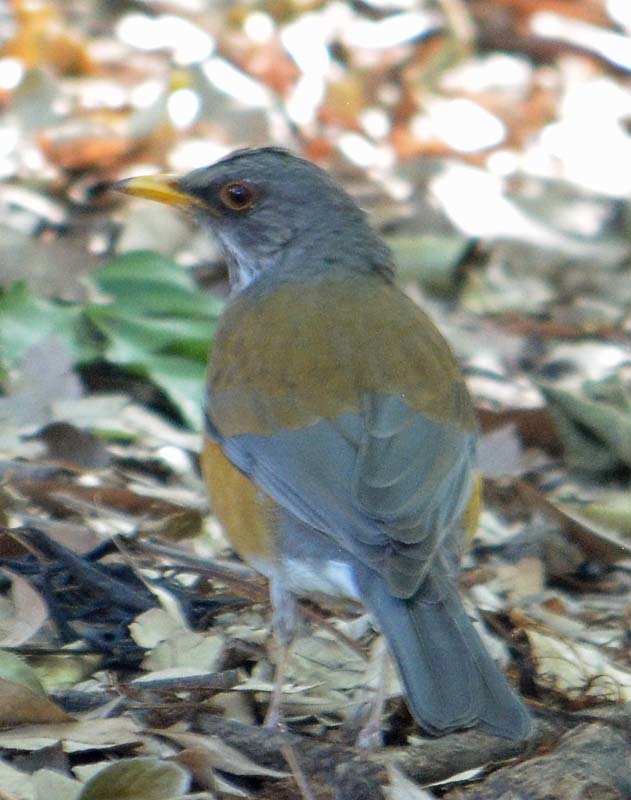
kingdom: Animalia
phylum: Chordata
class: Aves
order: Passeriformes
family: Turdidae
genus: Turdus
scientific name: Turdus rufopalliatus
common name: Rufous-backed robin
